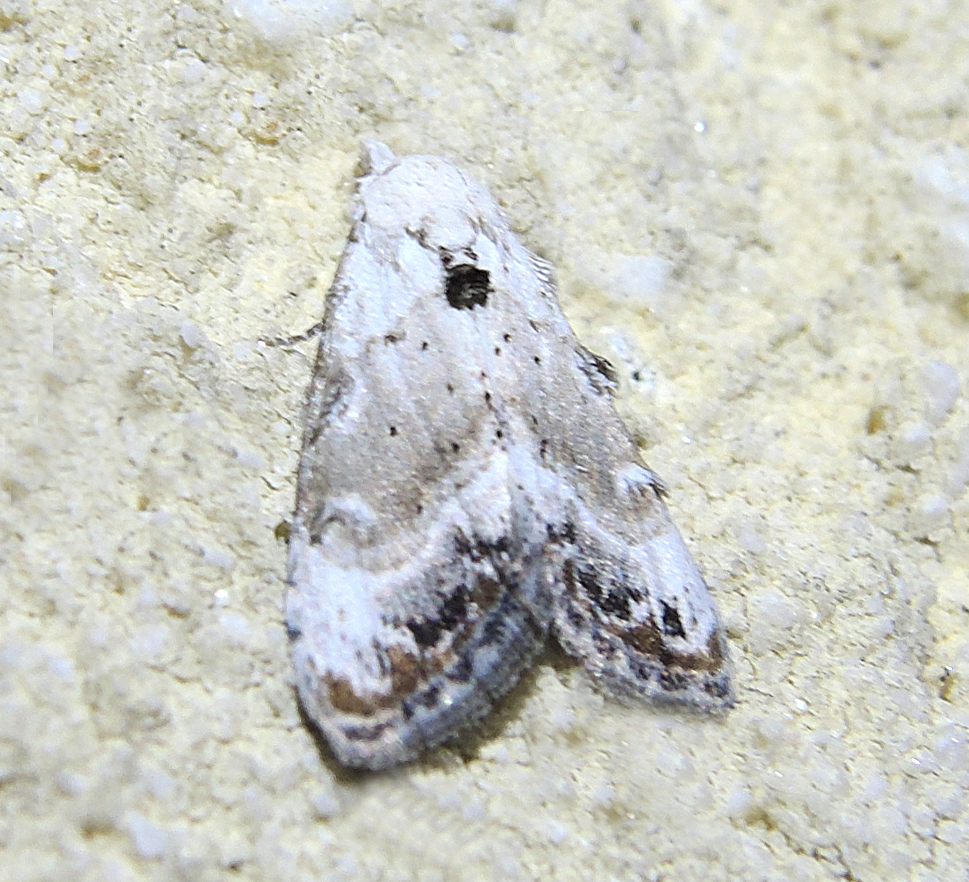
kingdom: Animalia
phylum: Arthropoda
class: Insecta
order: Lepidoptera
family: Nolidae
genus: Nola
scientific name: Nola chlamitulalis
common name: Jersey black arches
